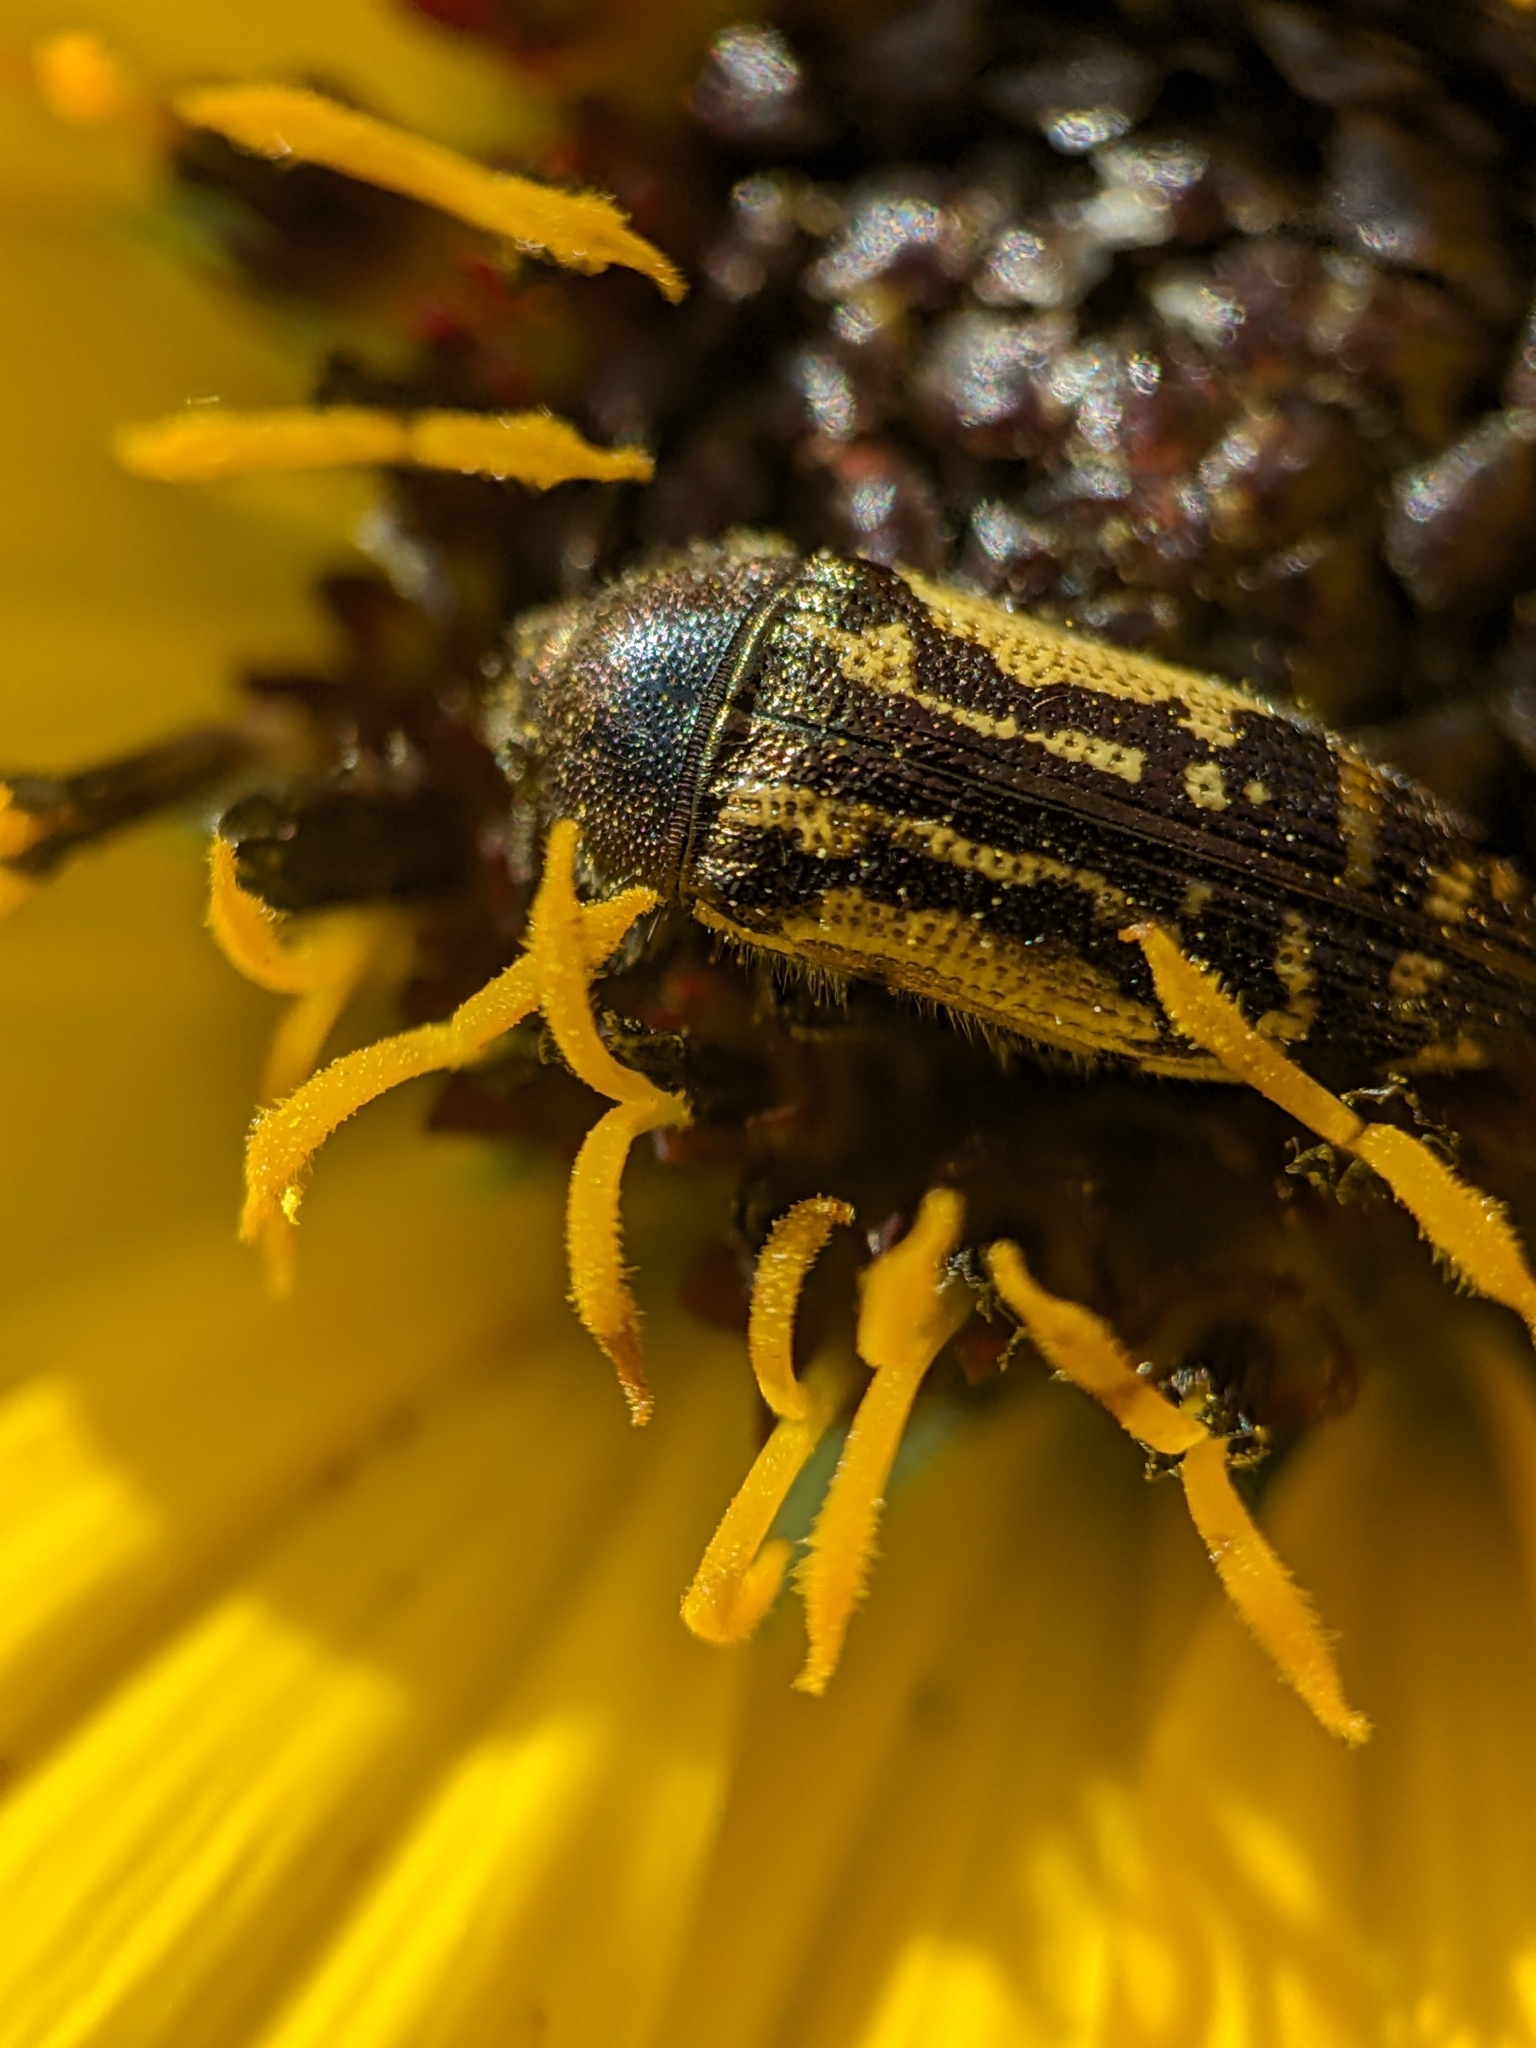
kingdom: Animalia
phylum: Arthropoda
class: Insecta
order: Coleoptera
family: Buprestidae
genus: Acmaeodera
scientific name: Acmaeodera pulchella
